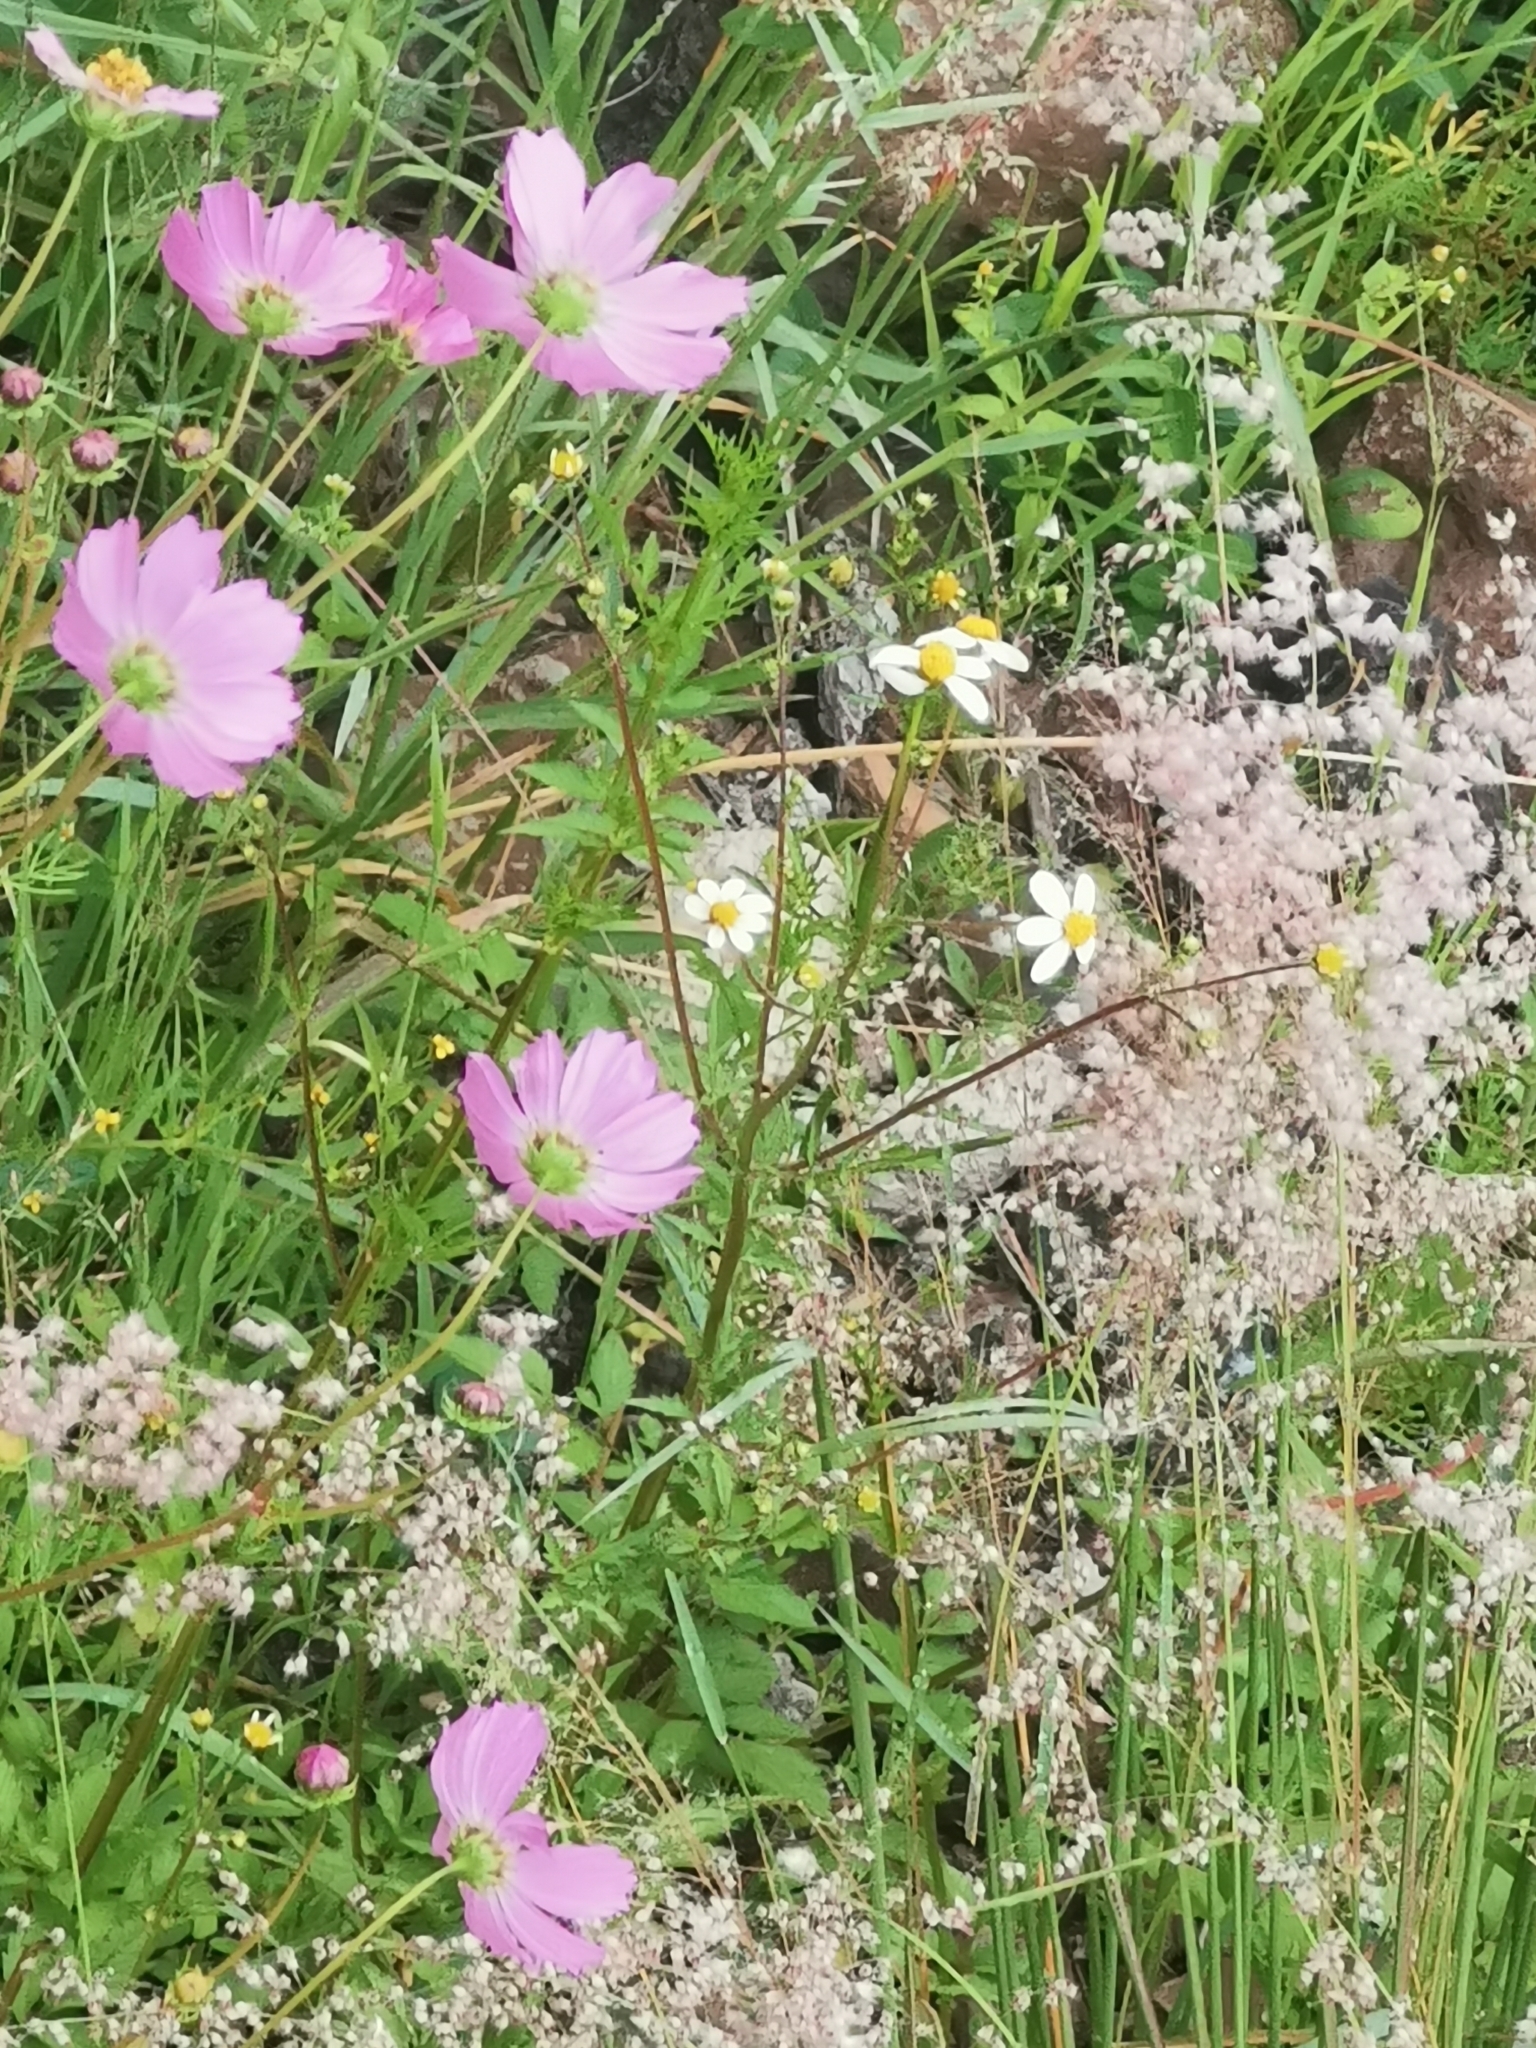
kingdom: Plantae
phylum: Tracheophyta
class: Magnoliopsida
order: Asterales
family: Asteraceae
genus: Cosmos
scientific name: Cosmos bipinnatus
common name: Garden cosmos
